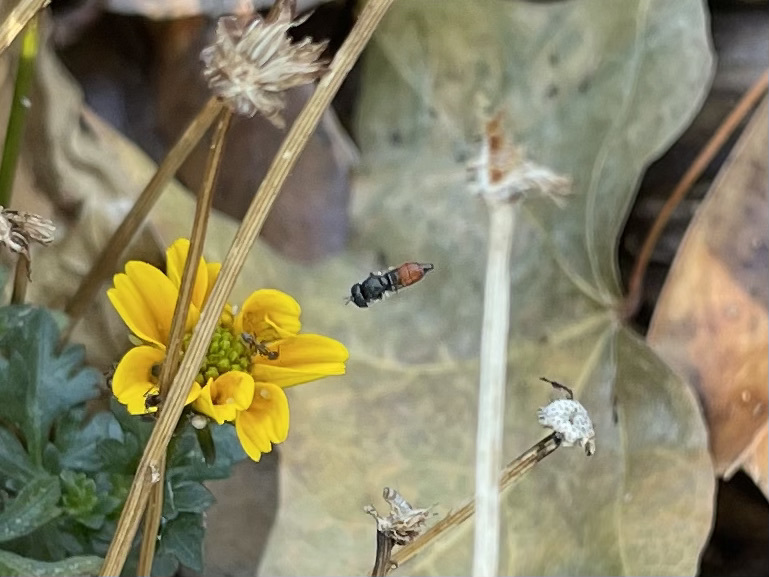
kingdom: Animalia
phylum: Arthropoda
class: Insecta
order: Diptera
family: Syrphidae
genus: Paragus
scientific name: Paragus haemorrhous
